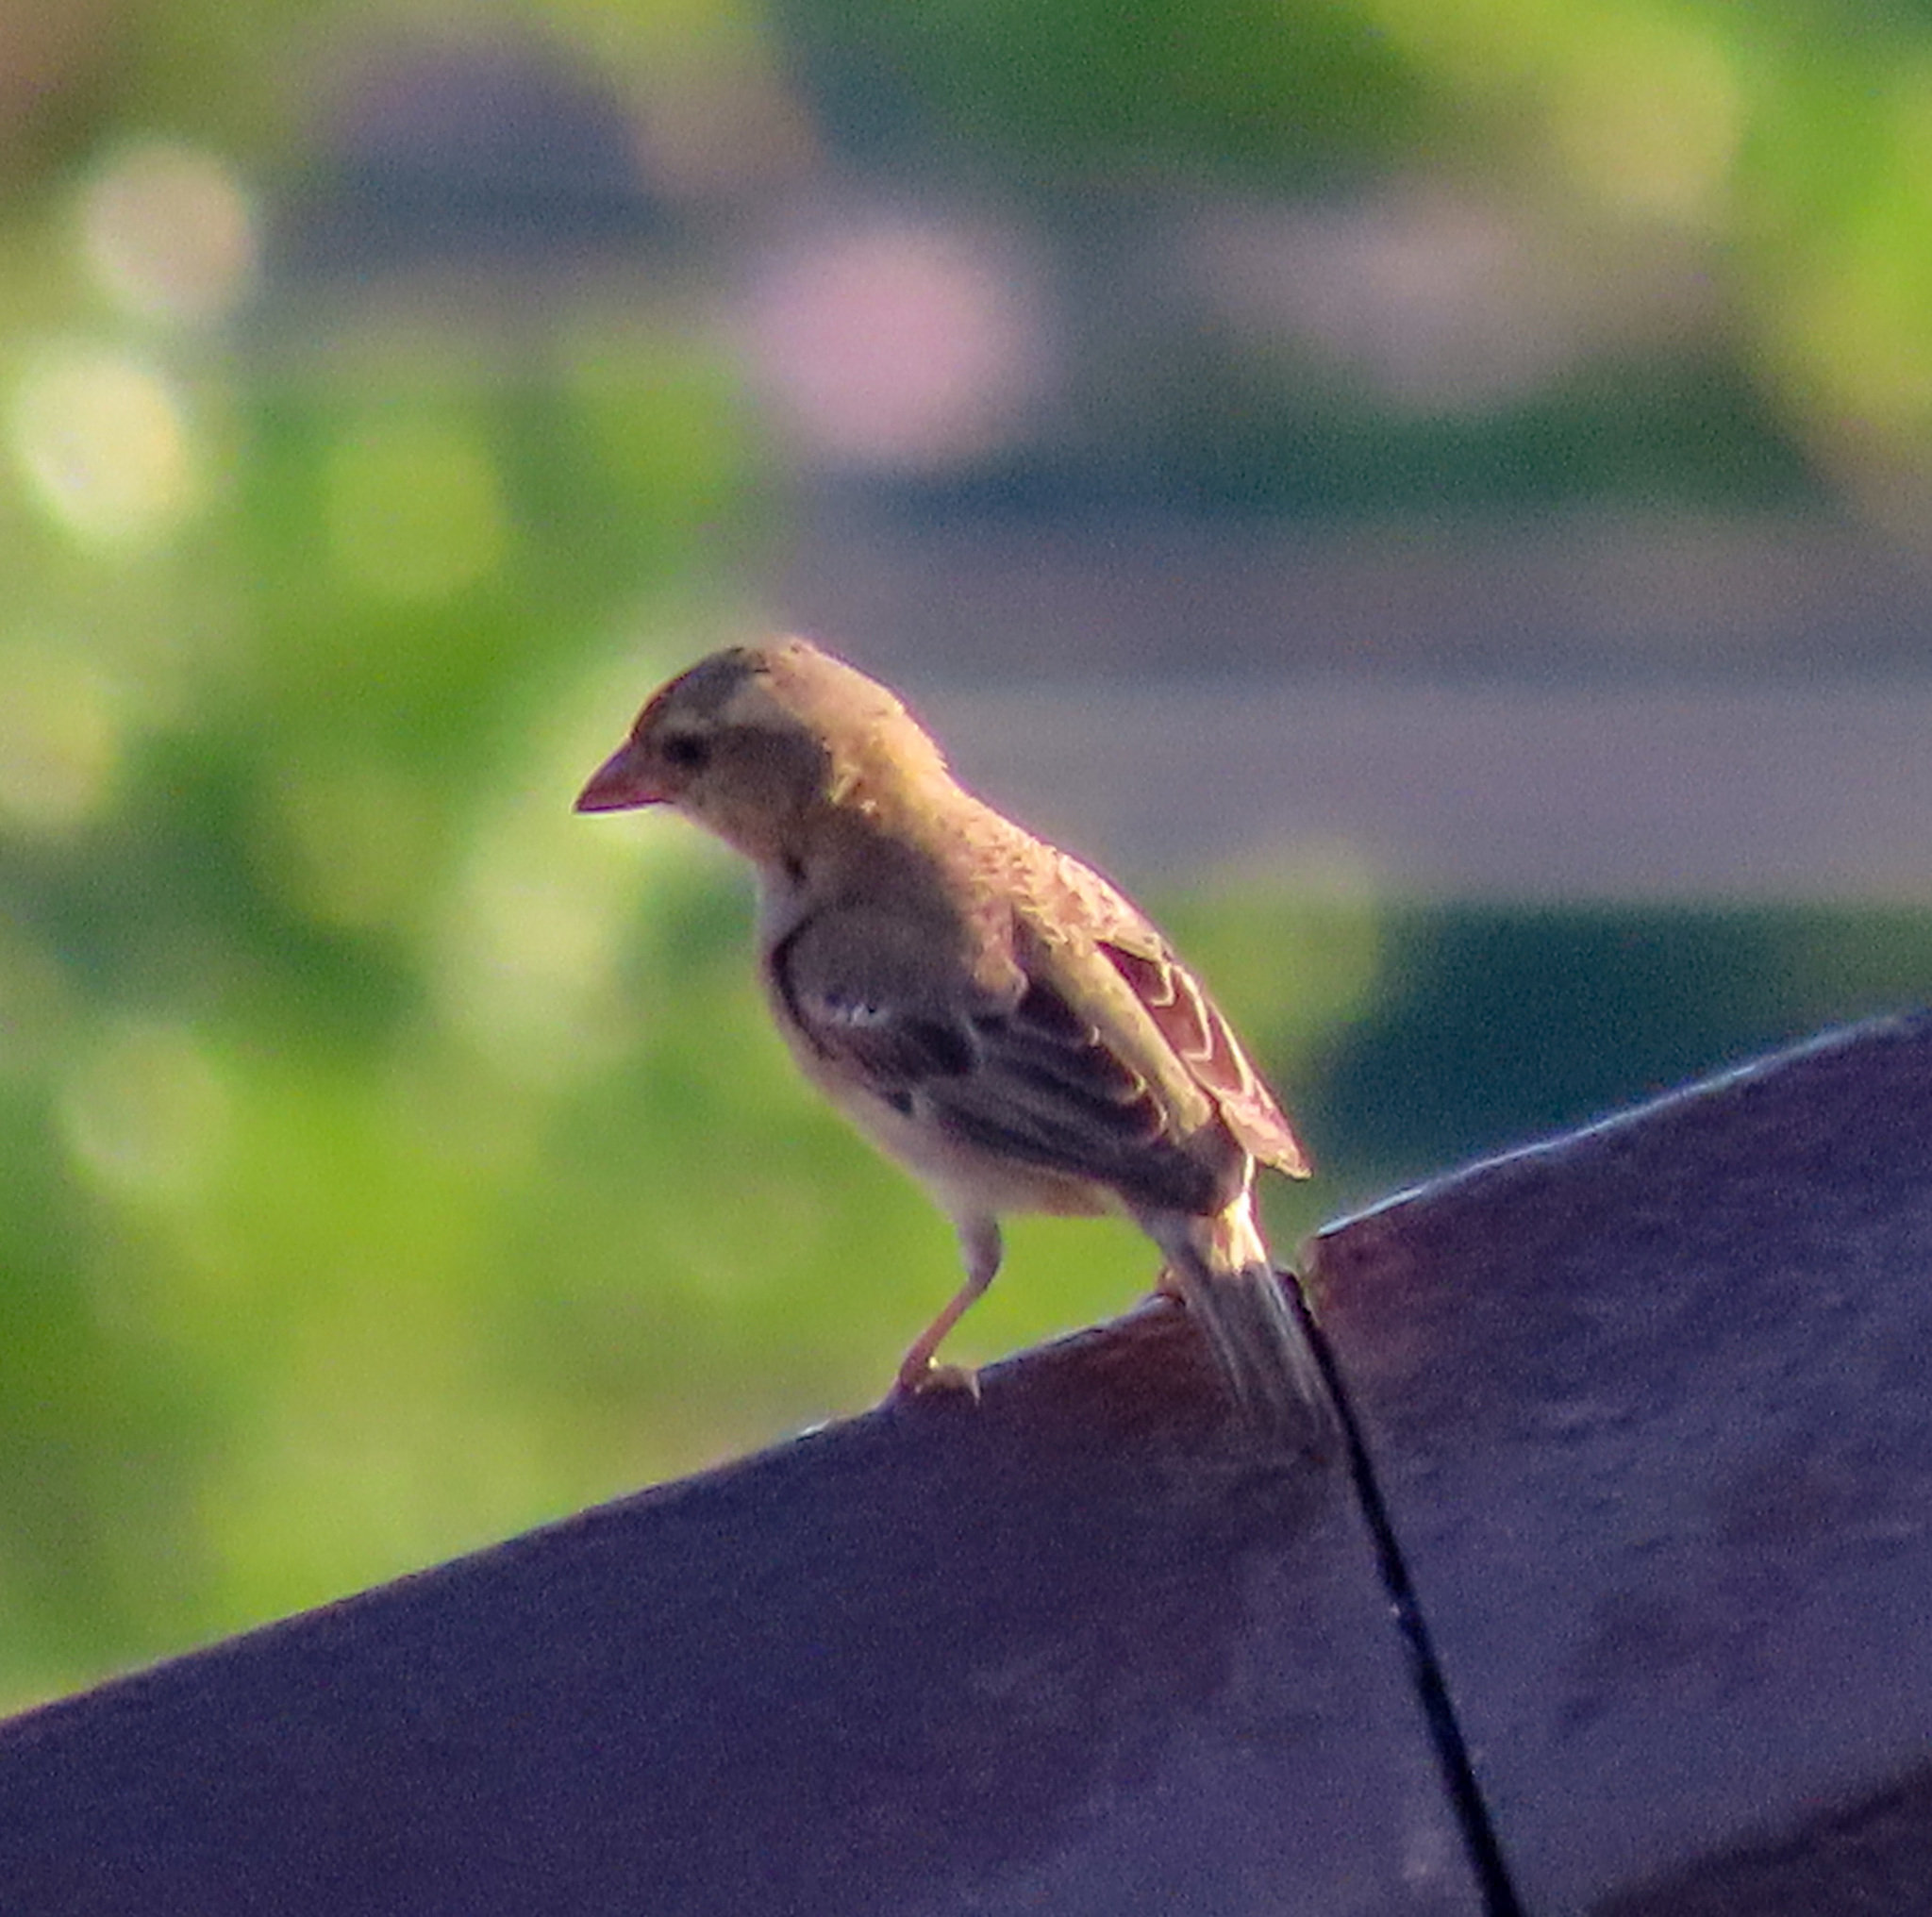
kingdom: Animalia
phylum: Chordata
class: Aves
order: Passeriformes
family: Passeridae
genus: Passer
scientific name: Passer flaveolus
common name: Plain-backed sparrow
